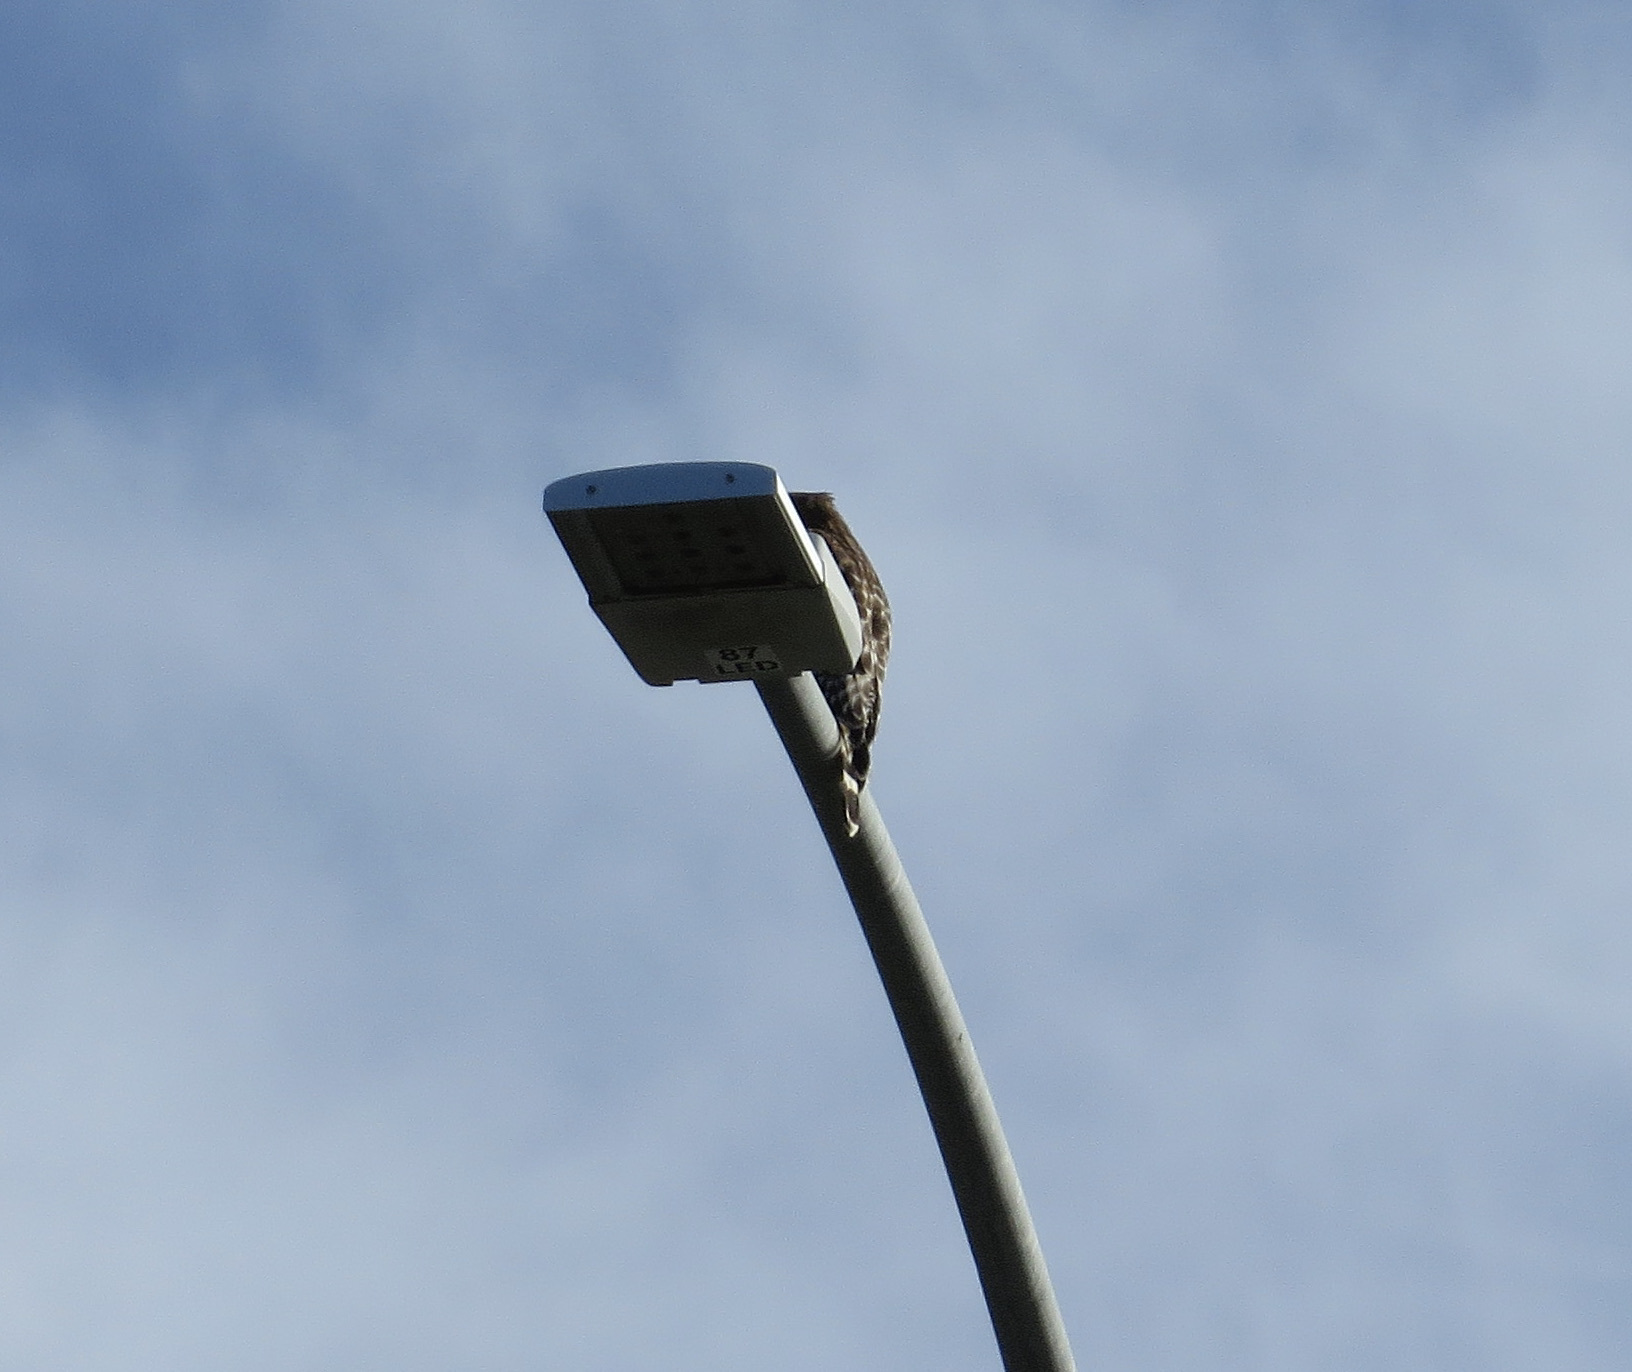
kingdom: Animalia
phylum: Chordata
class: Aves
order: Accipitriformes
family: Accipitridae
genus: Buteo
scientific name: Buteo lineatus
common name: Red-shouldered hawk
